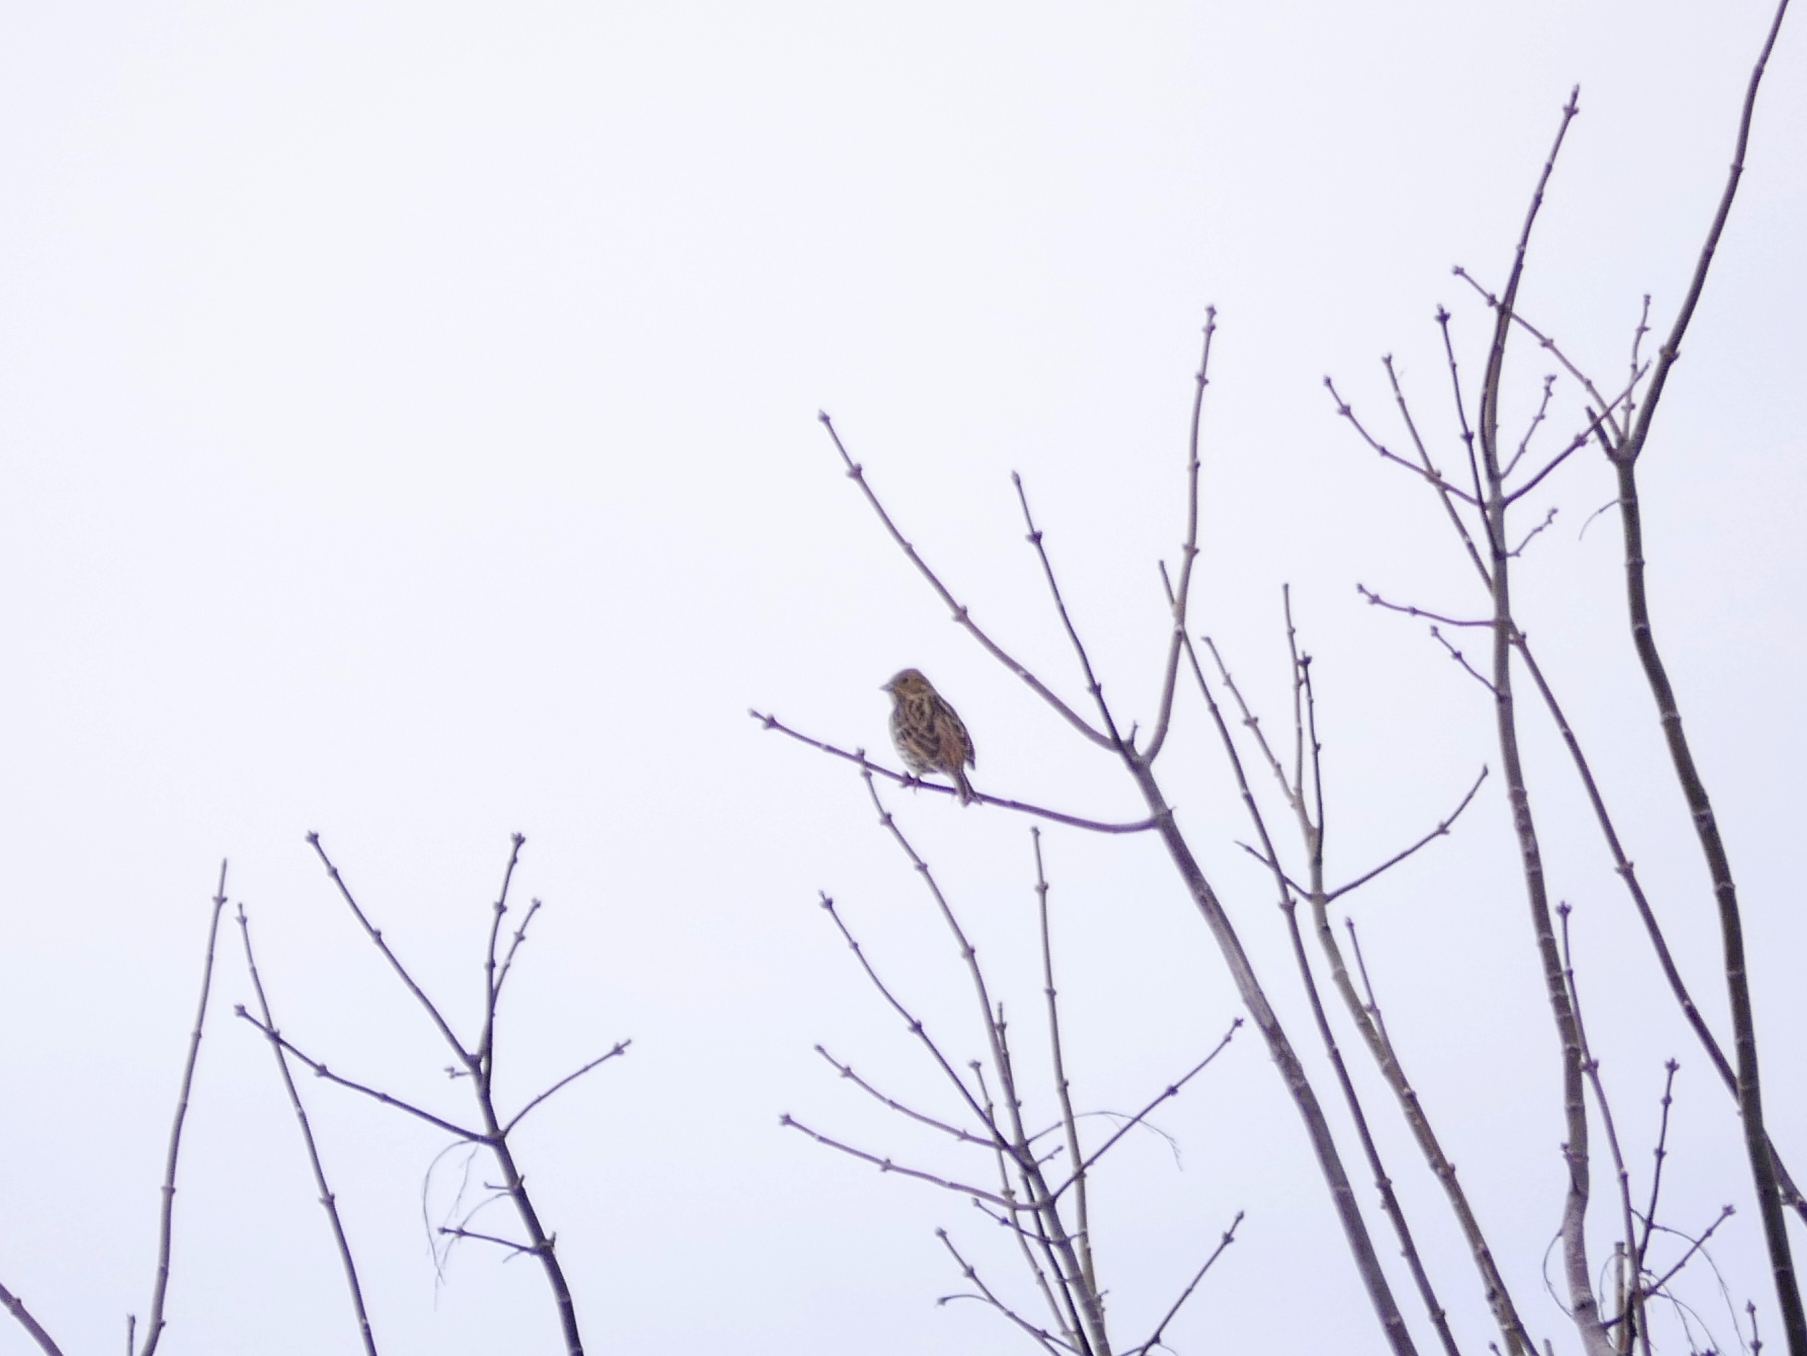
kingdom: Animalia
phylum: Chordata
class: Aves
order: Passeriformes
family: Emberizidae
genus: Emberiza
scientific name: Emberiza citrinella
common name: Yellowhammer
